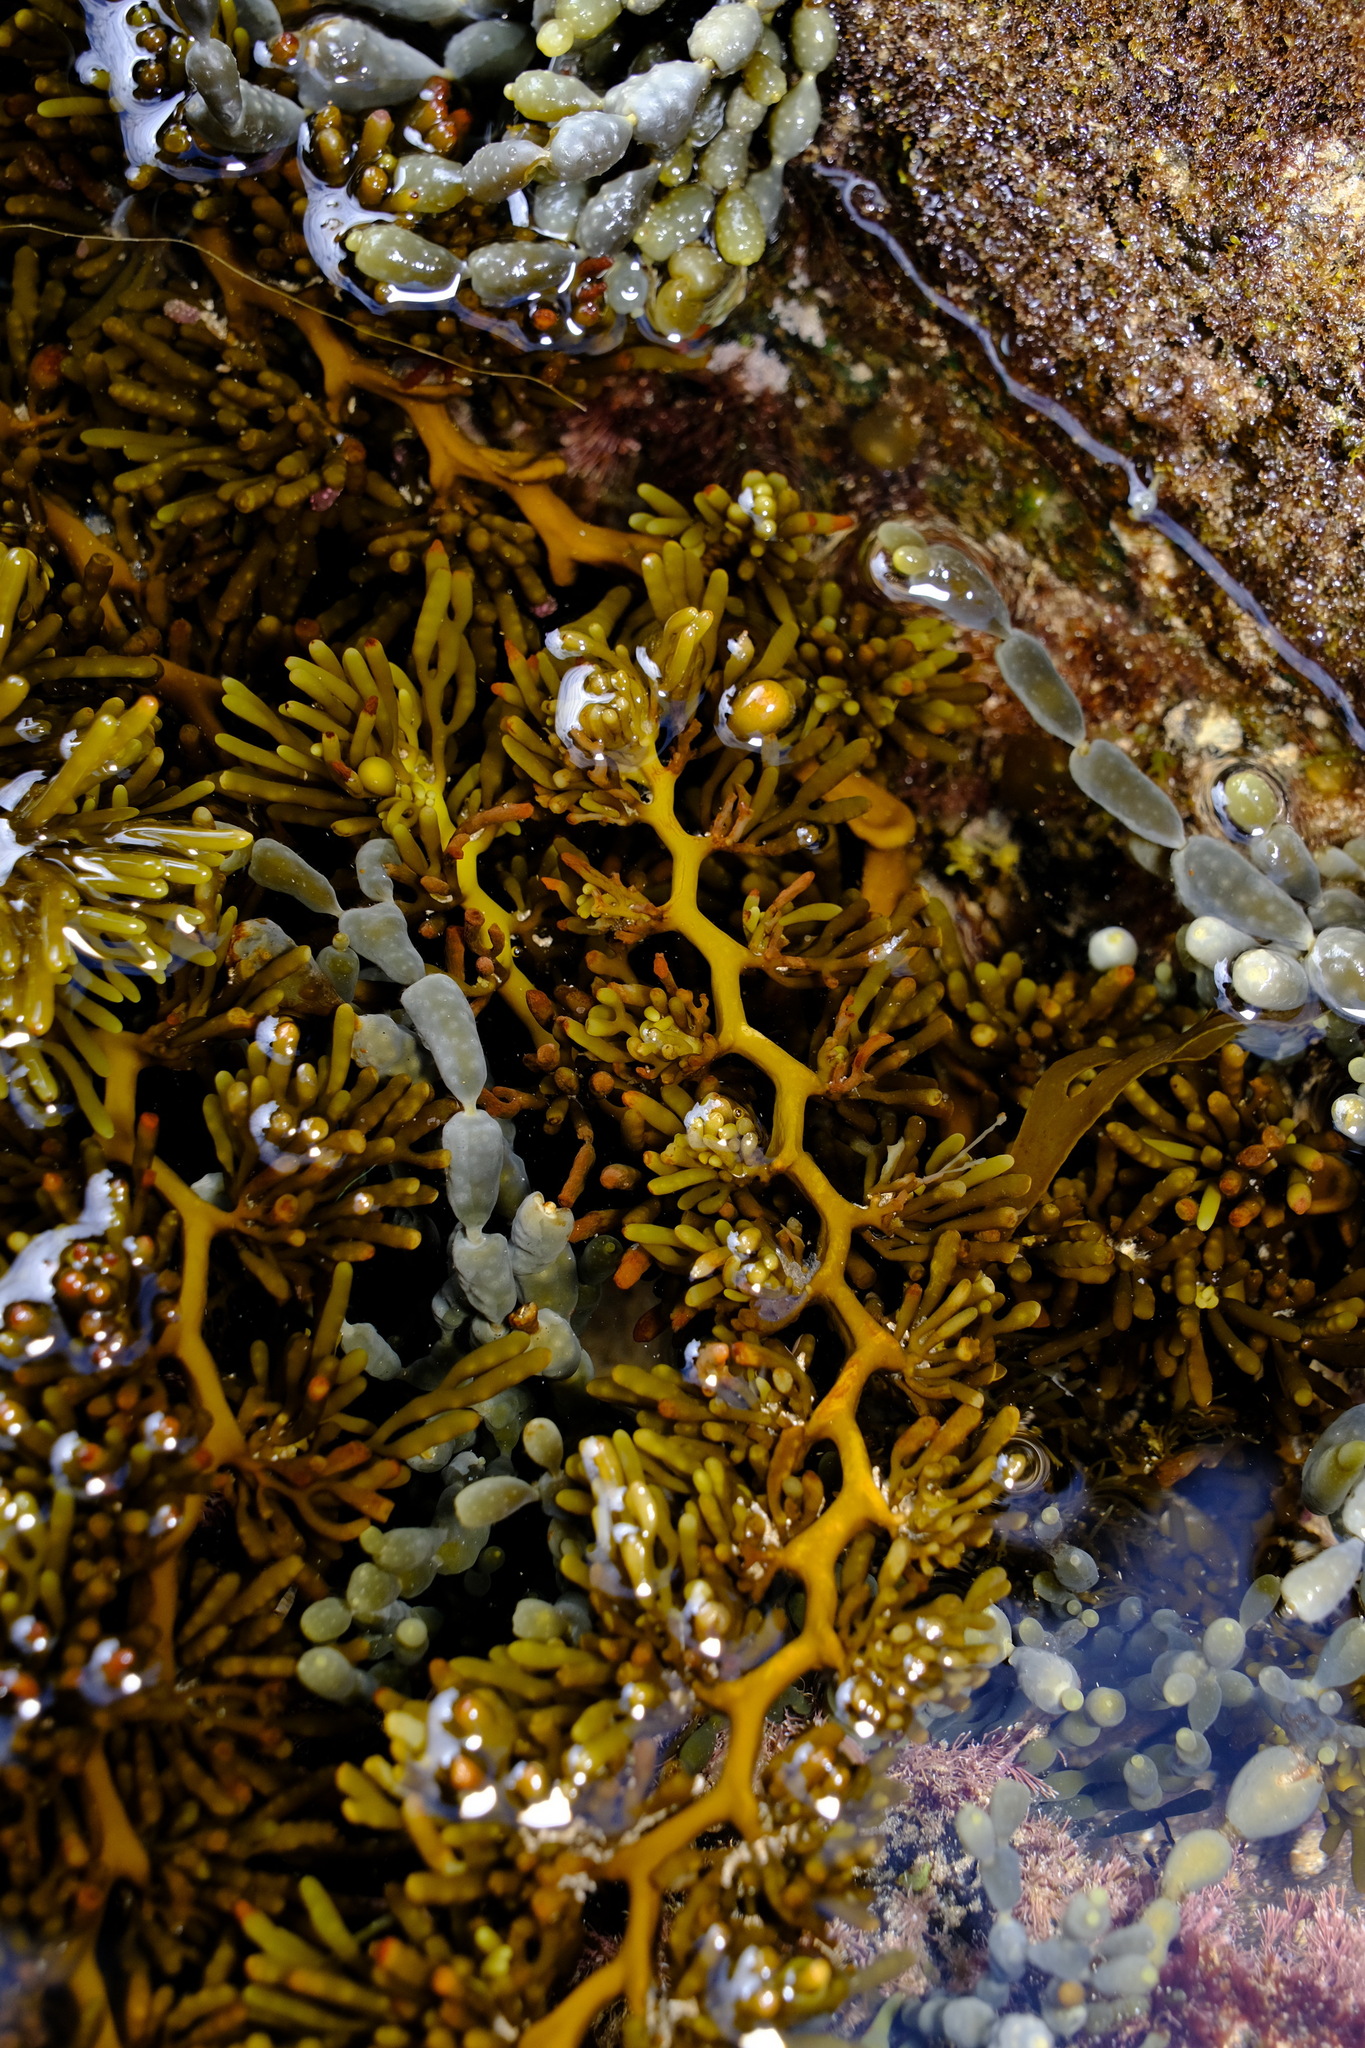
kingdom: Chromista
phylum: Ochrophyta
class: Phaeophyceae
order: Fucales
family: Sargassaceae
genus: Cystophora
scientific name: Cystophora torulosa
